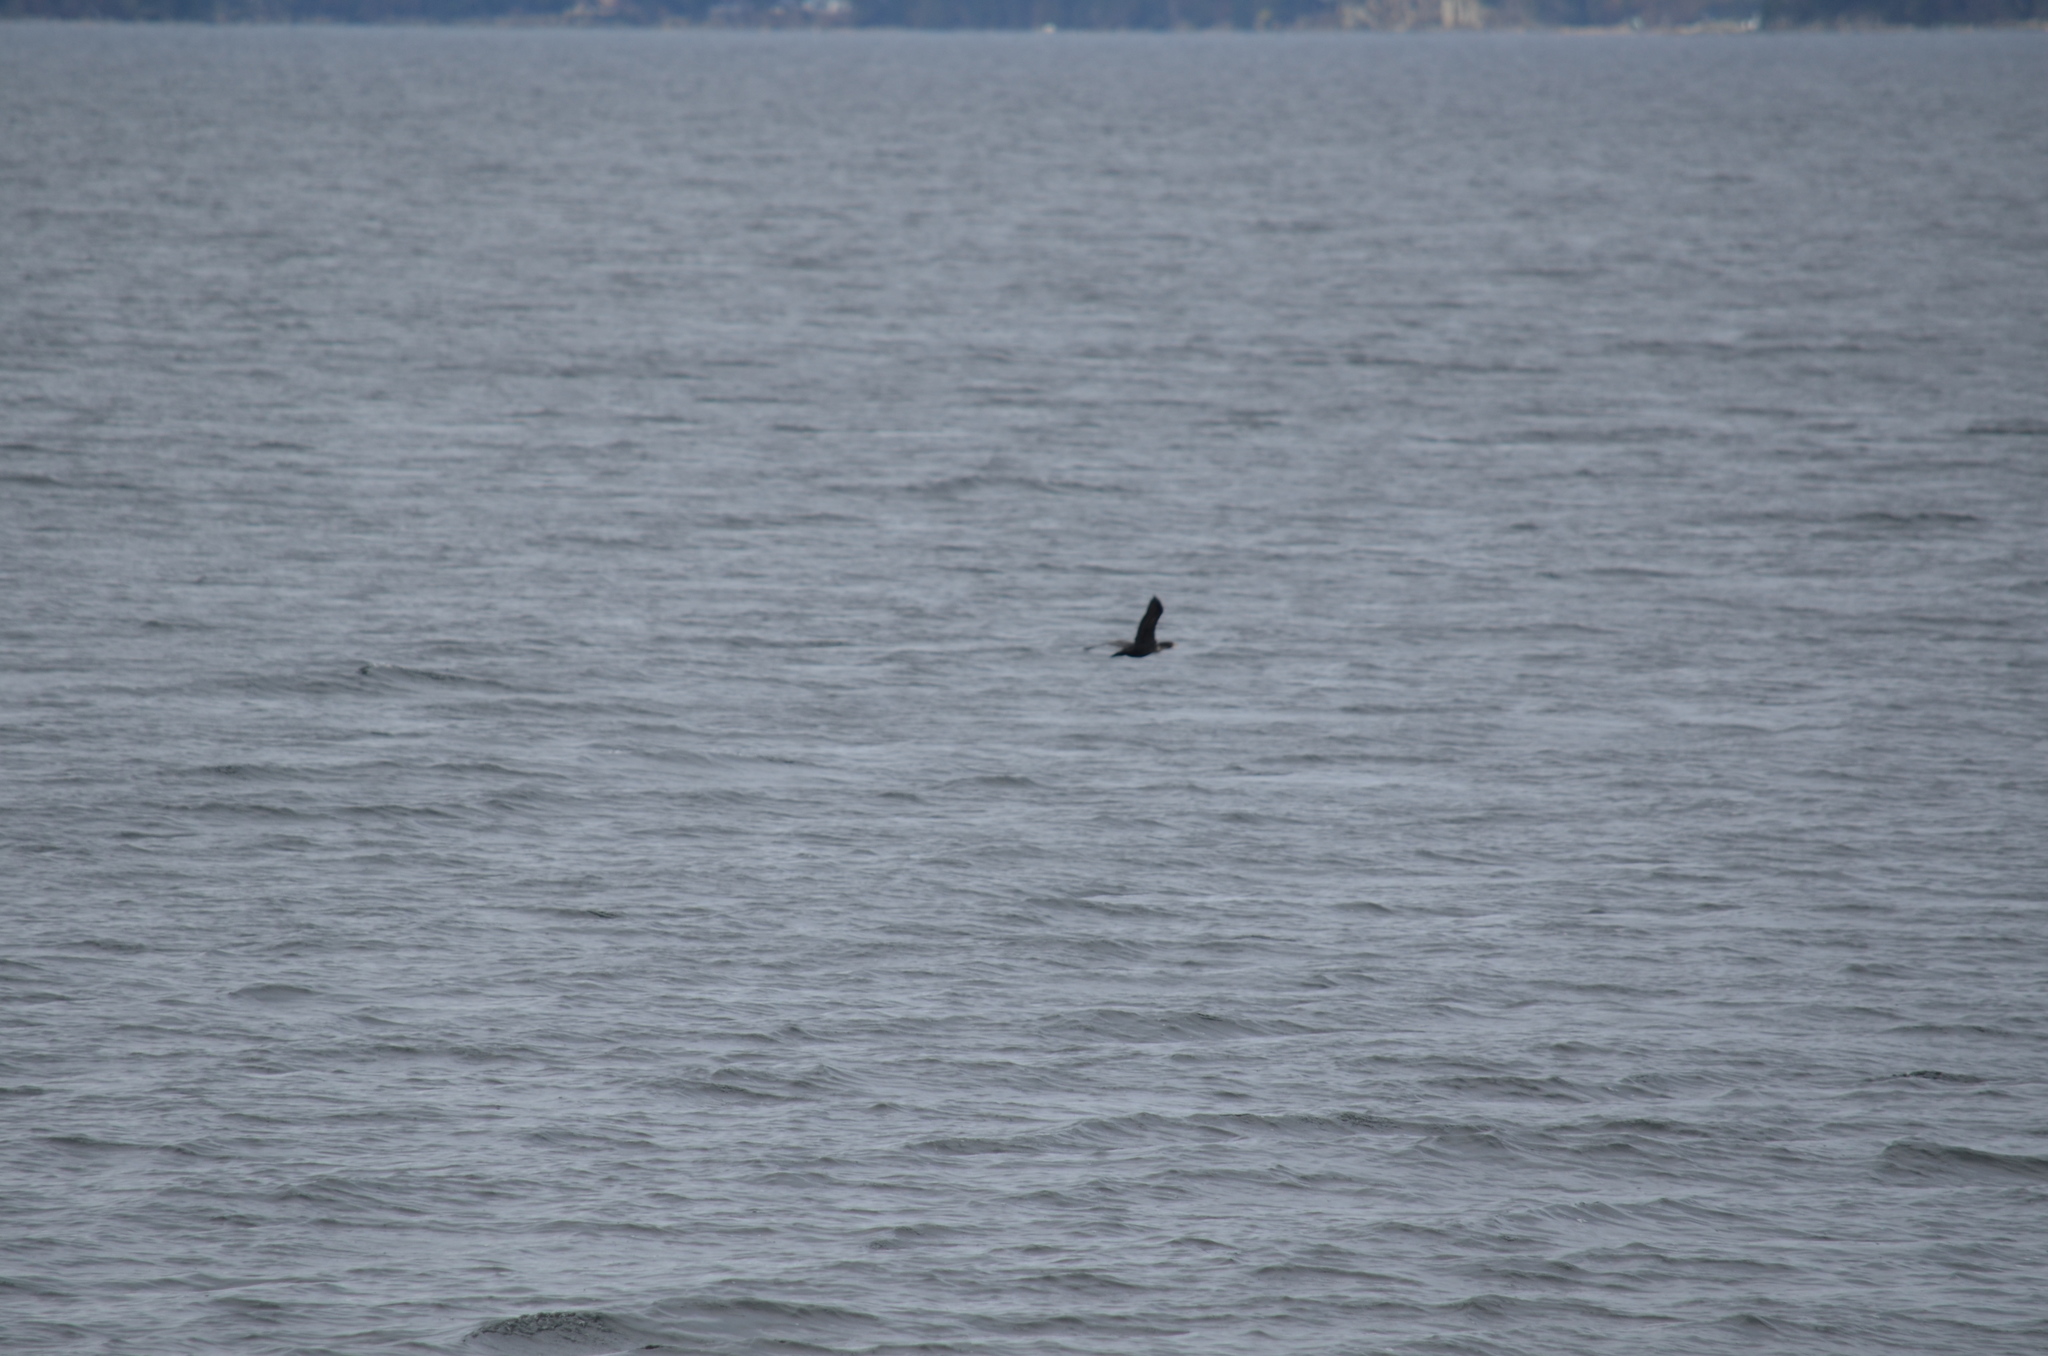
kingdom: Animalia
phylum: Chordata
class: Aves
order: Suliformes
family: Phalacrocoracidae
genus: Phalacrocorax
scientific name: Phalacrocorax auritus
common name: Double-crested cormorant
